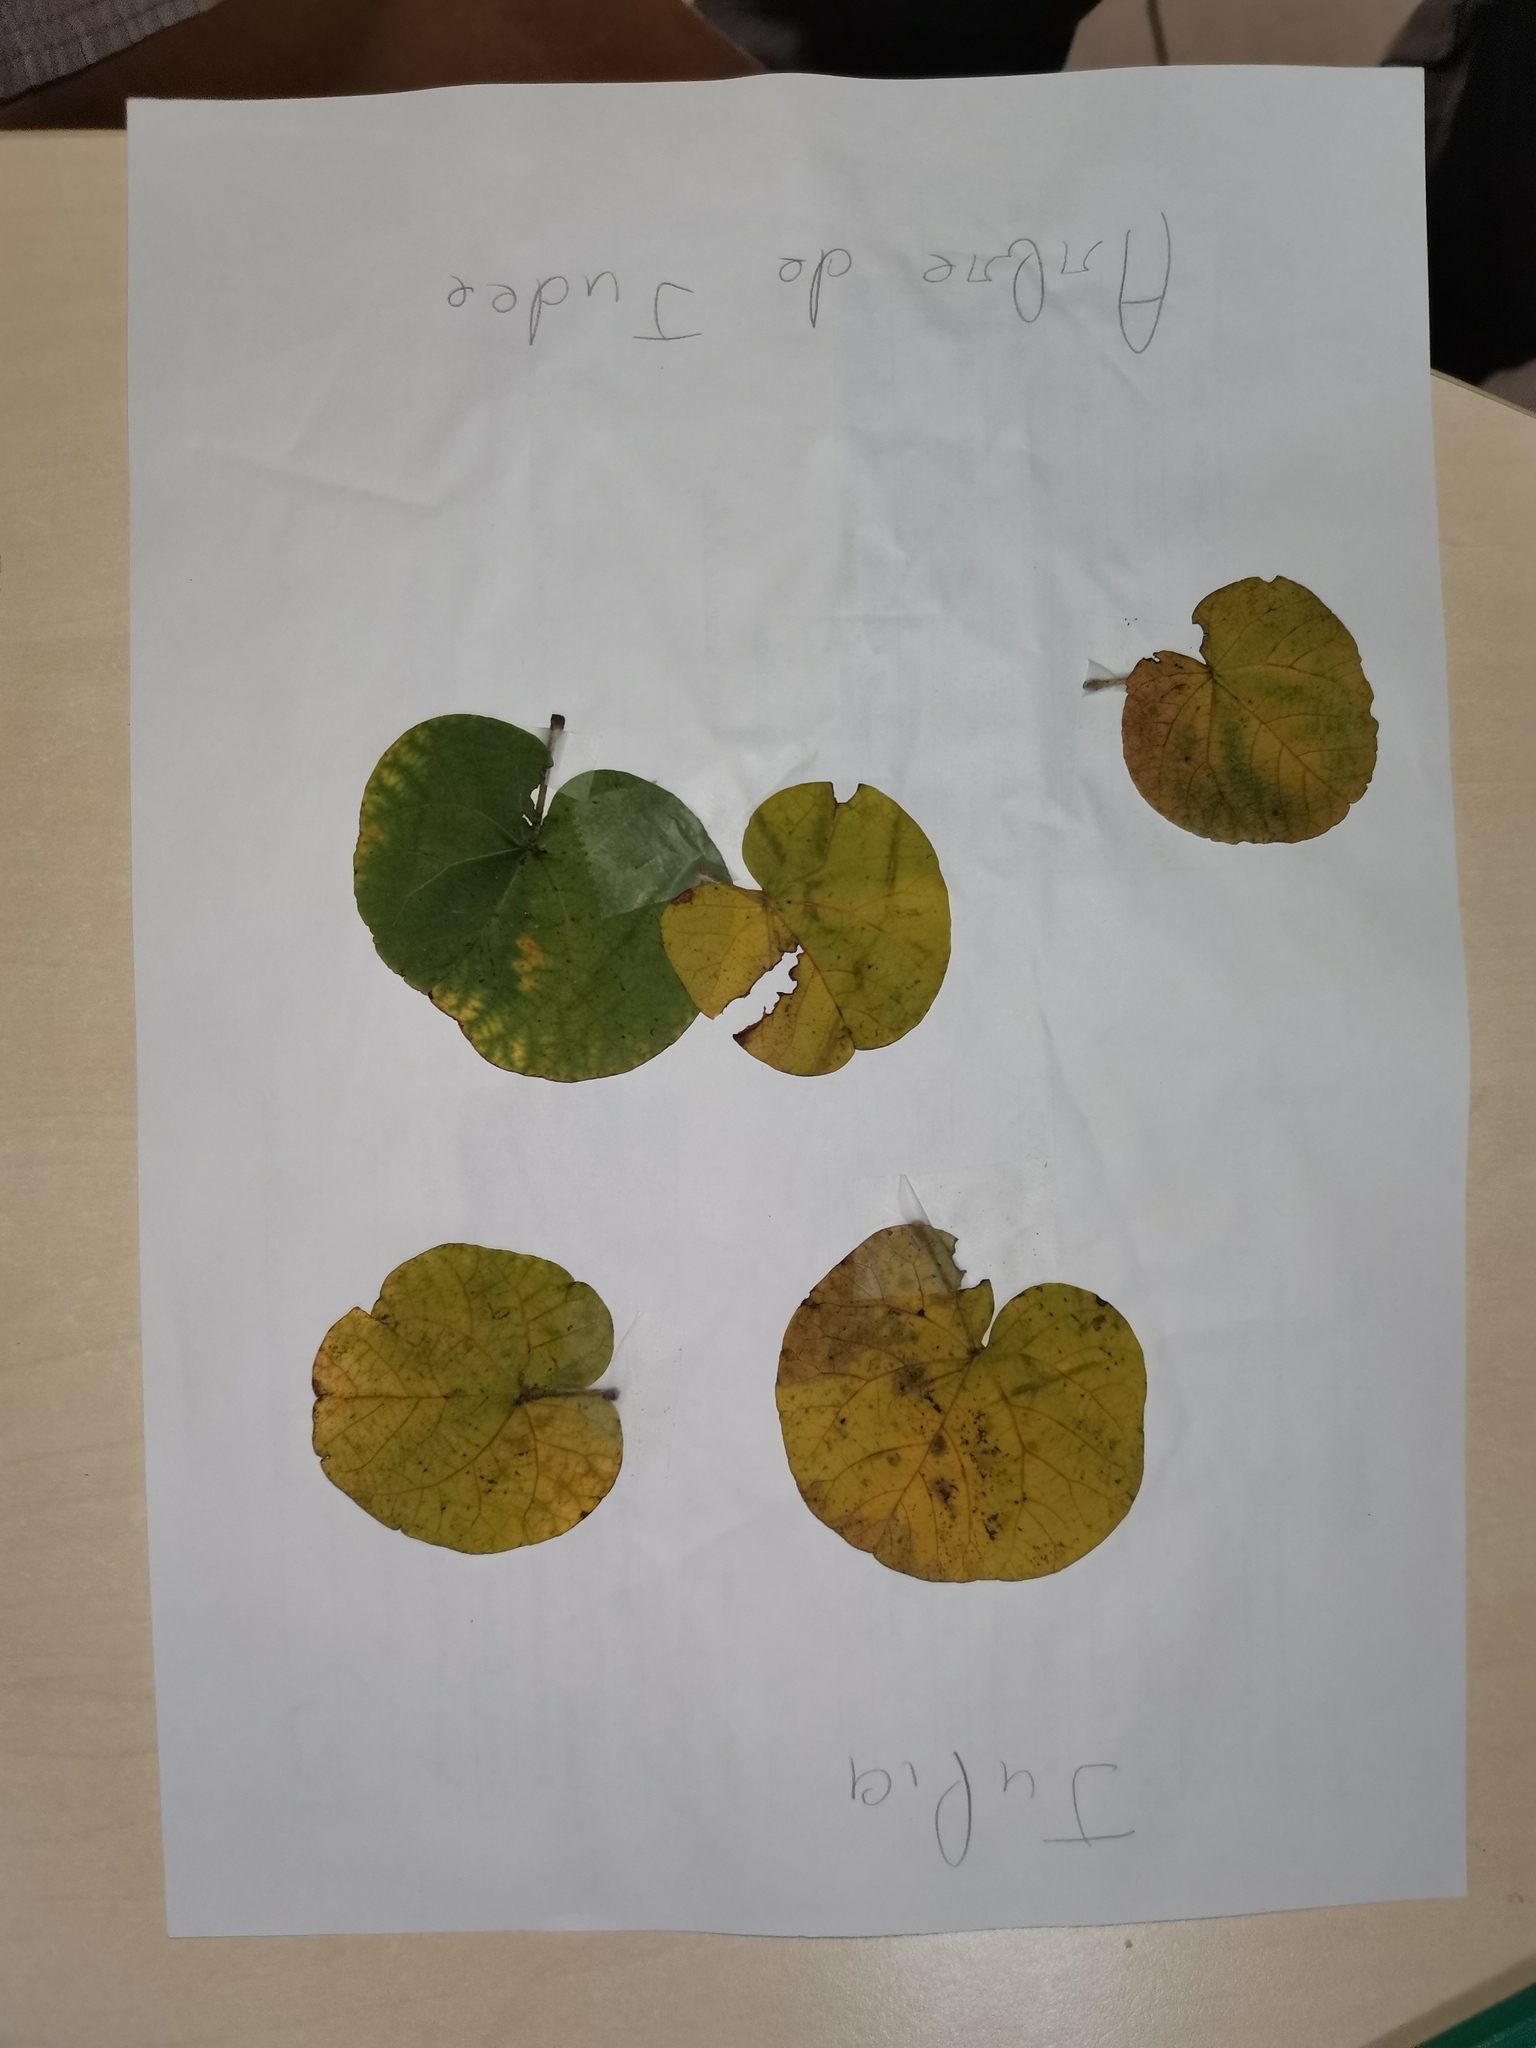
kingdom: Plantae
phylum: Tracheophyta
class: Magnoliopsida
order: Fabales
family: Fabaceae
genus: Cercis
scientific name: Cercis siliquastrum
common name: Judas tree
